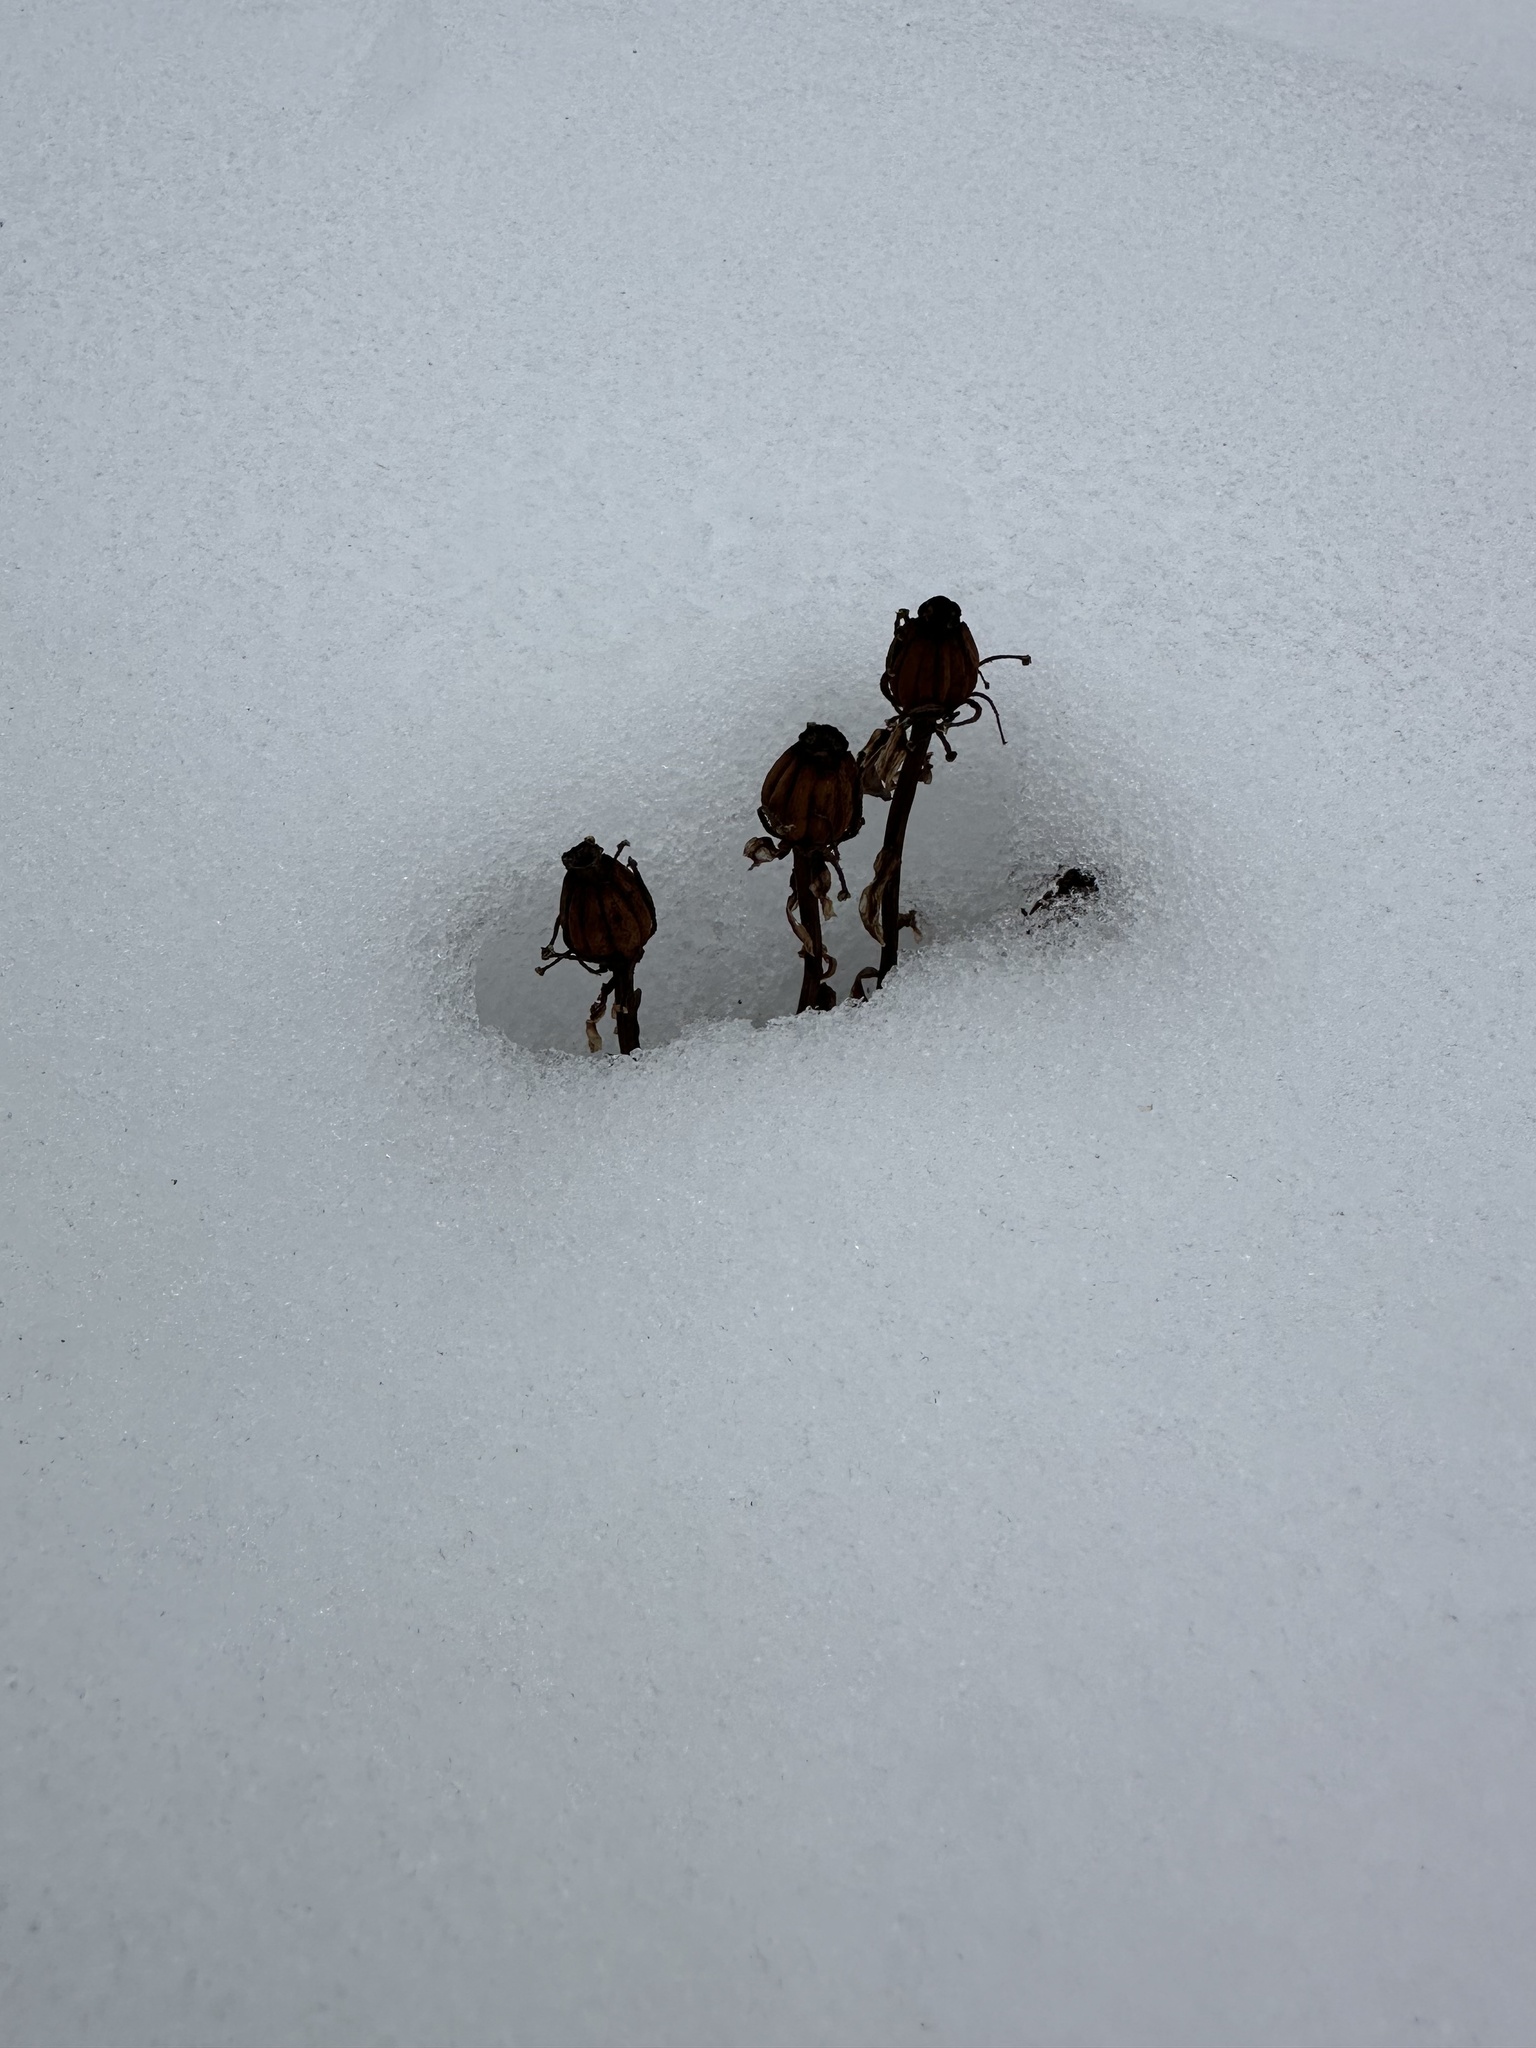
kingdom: Plantae
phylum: Tracheophyta
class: Magnoliopsida
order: Ericales
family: Ericaceae
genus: Monotropa
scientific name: Monotropa uniflora
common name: Convulsion root
